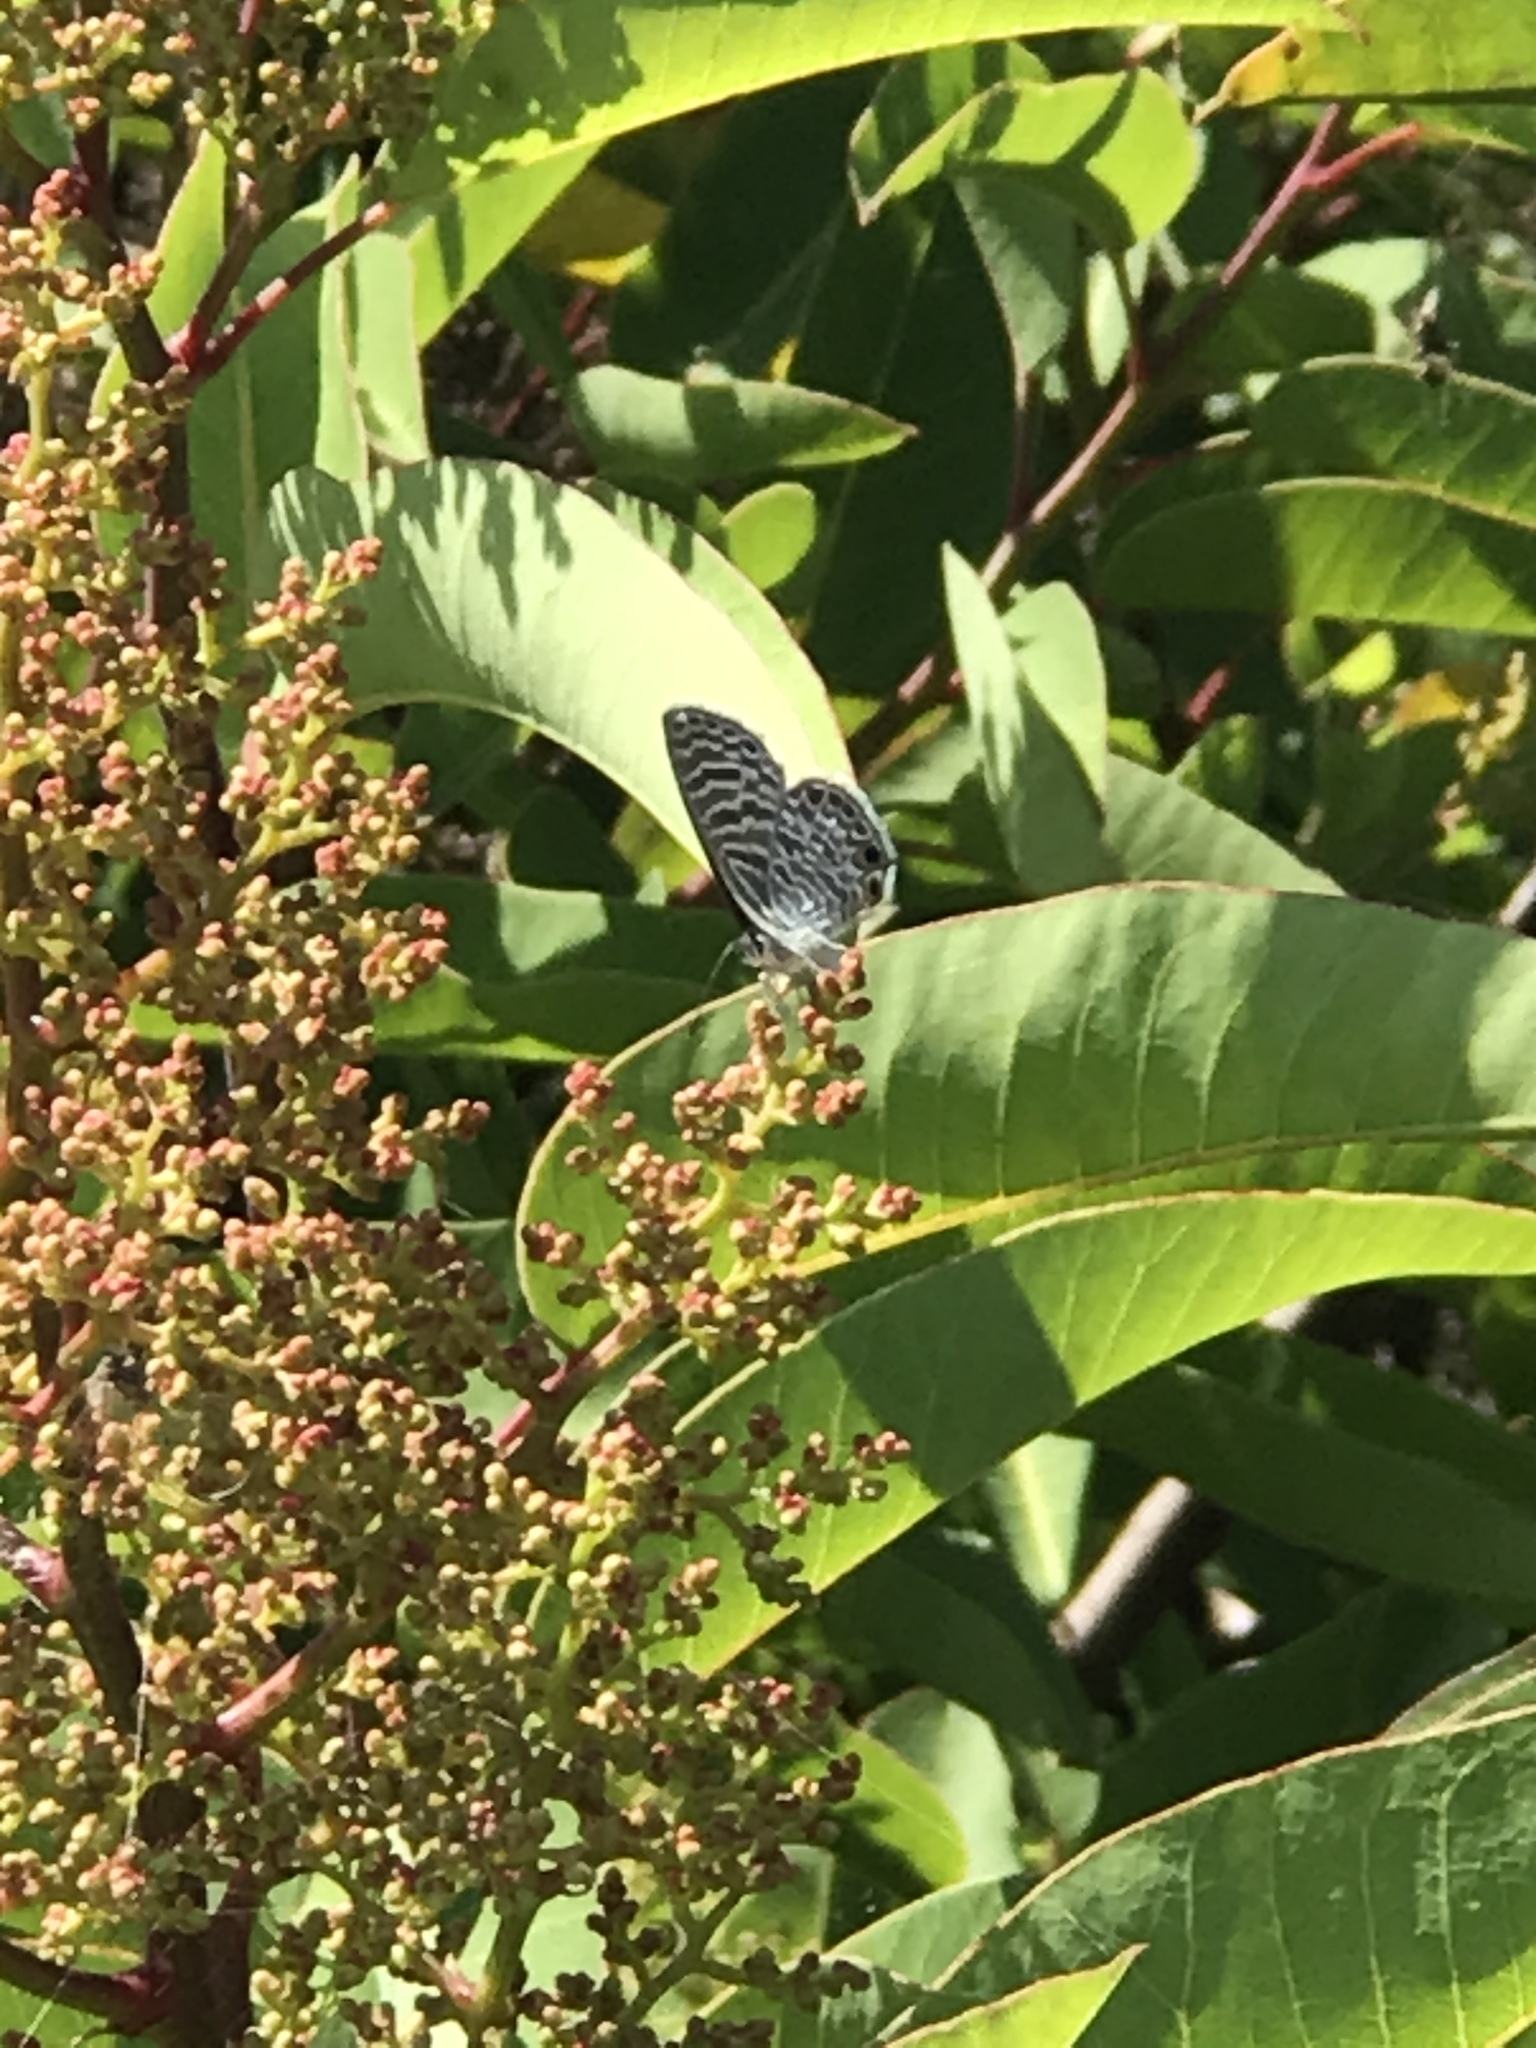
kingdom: Animalia
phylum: Arthropoda
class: Insecta
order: Lepidoptera
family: Lycaenidae
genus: Leptotes
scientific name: Leptotes marina
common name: Marine blue
